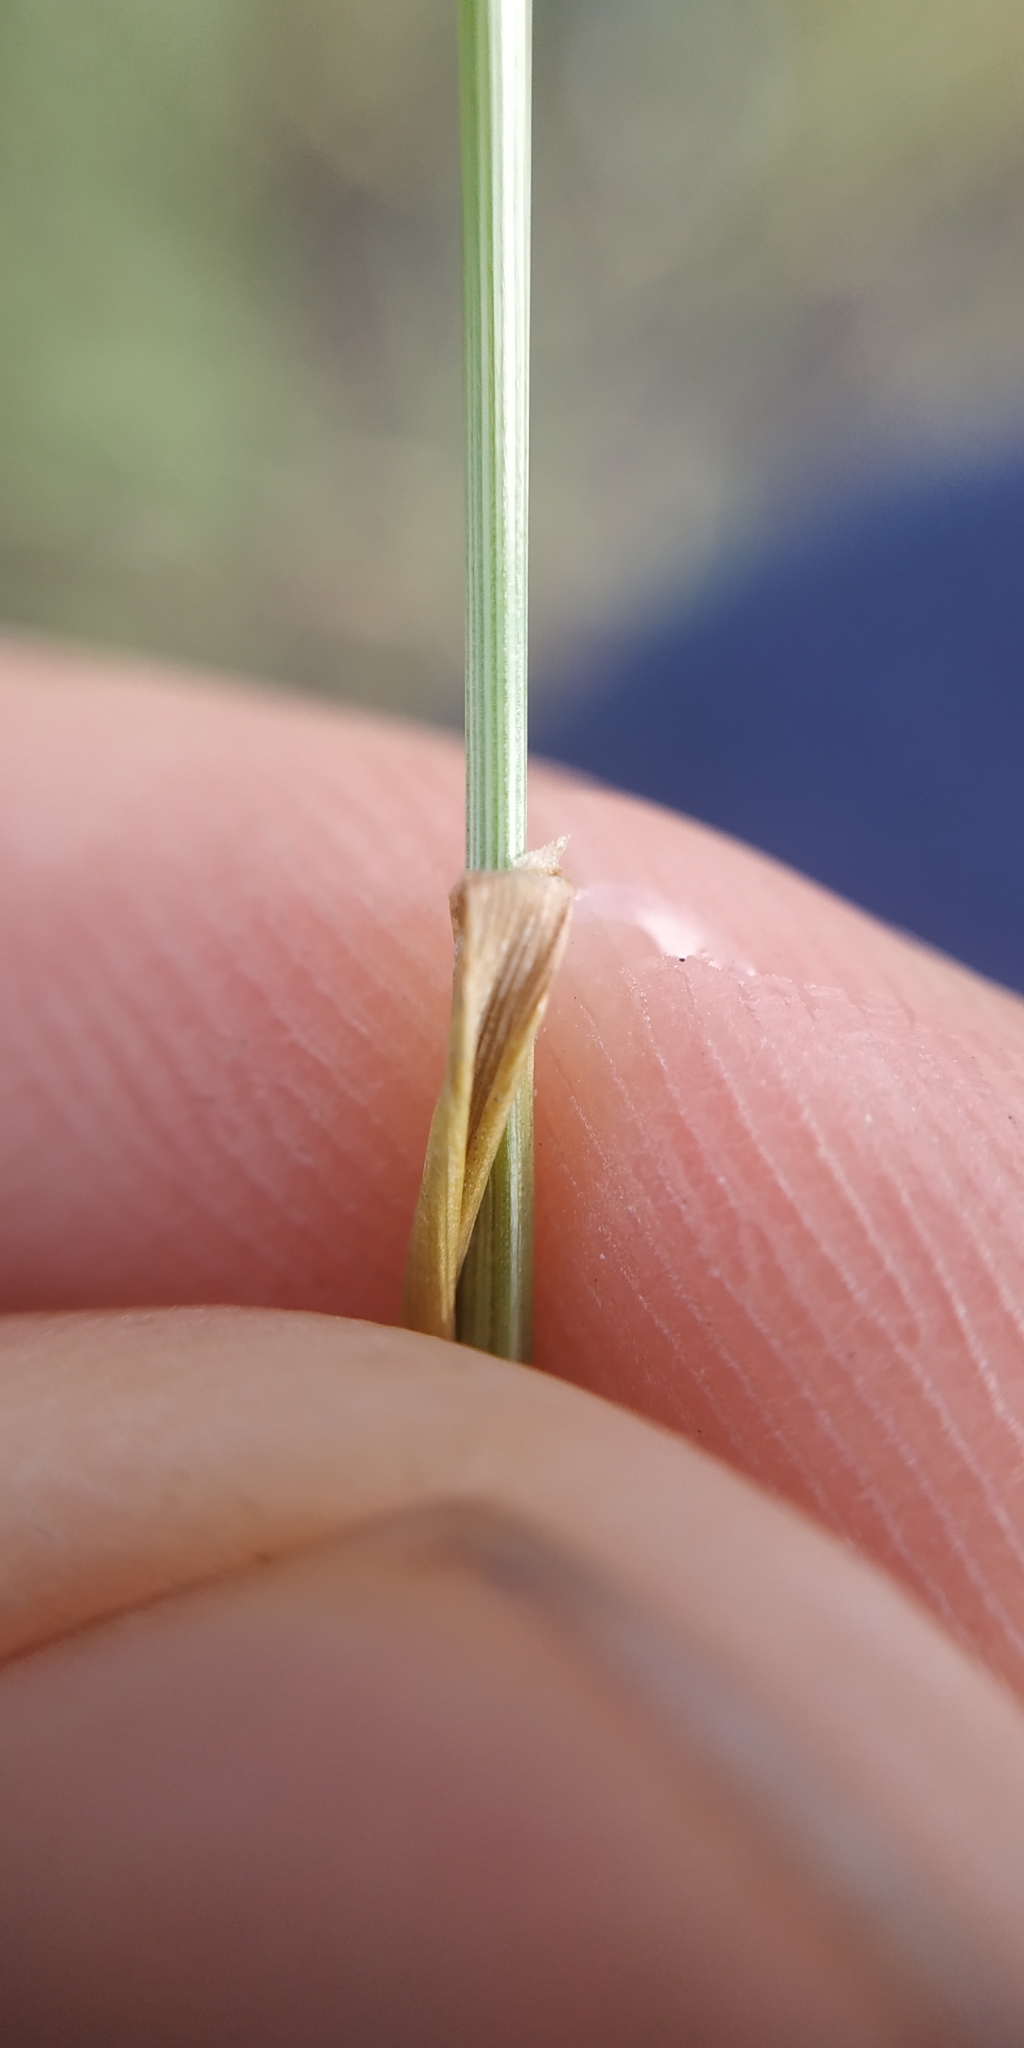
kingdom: Plantae
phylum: Tracheophyta
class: Liliopsida
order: Poales
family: Poaceae
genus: Festuca
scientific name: Festuca rubra
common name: Red fescue
